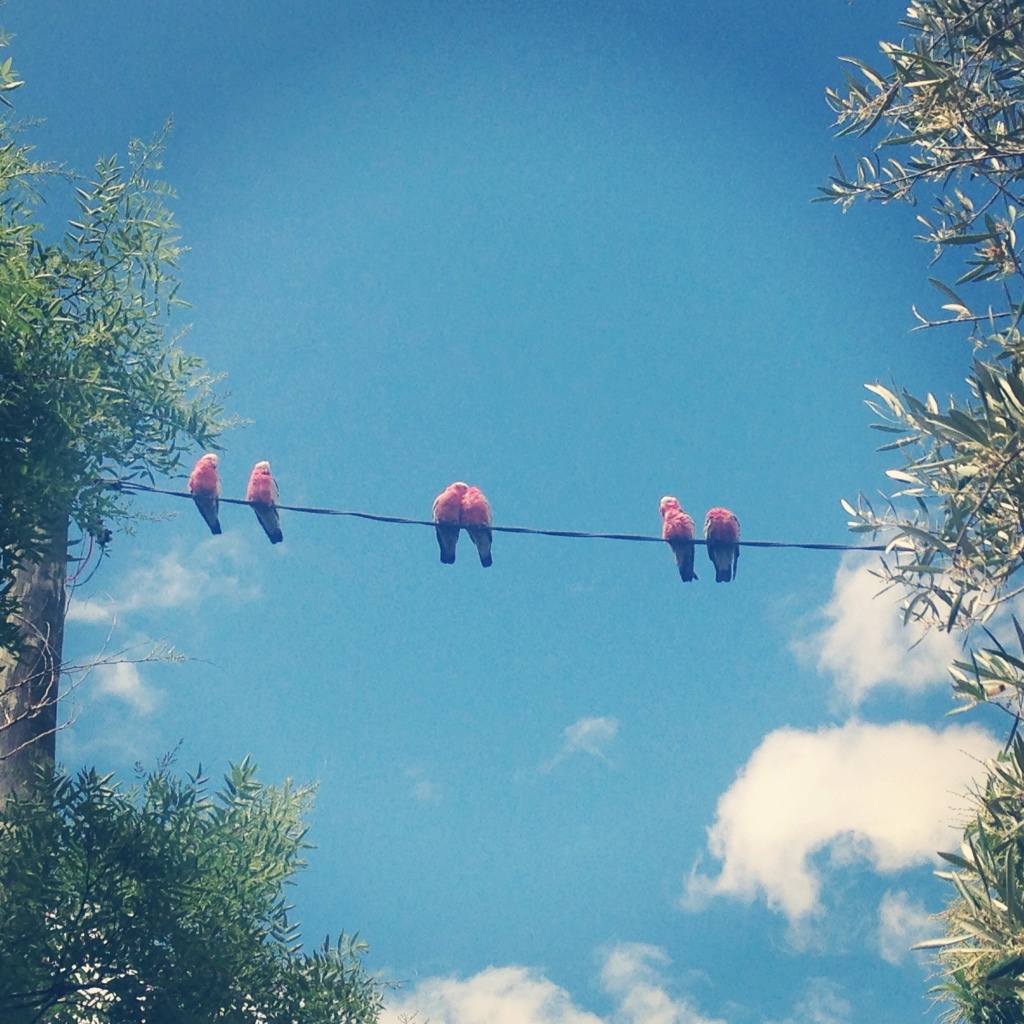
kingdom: Animalia
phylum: Chordata
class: Aves
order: Psittaciformes
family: Psittacidae
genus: Eolophus
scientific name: Eolophus roseicapilla
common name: Galah
